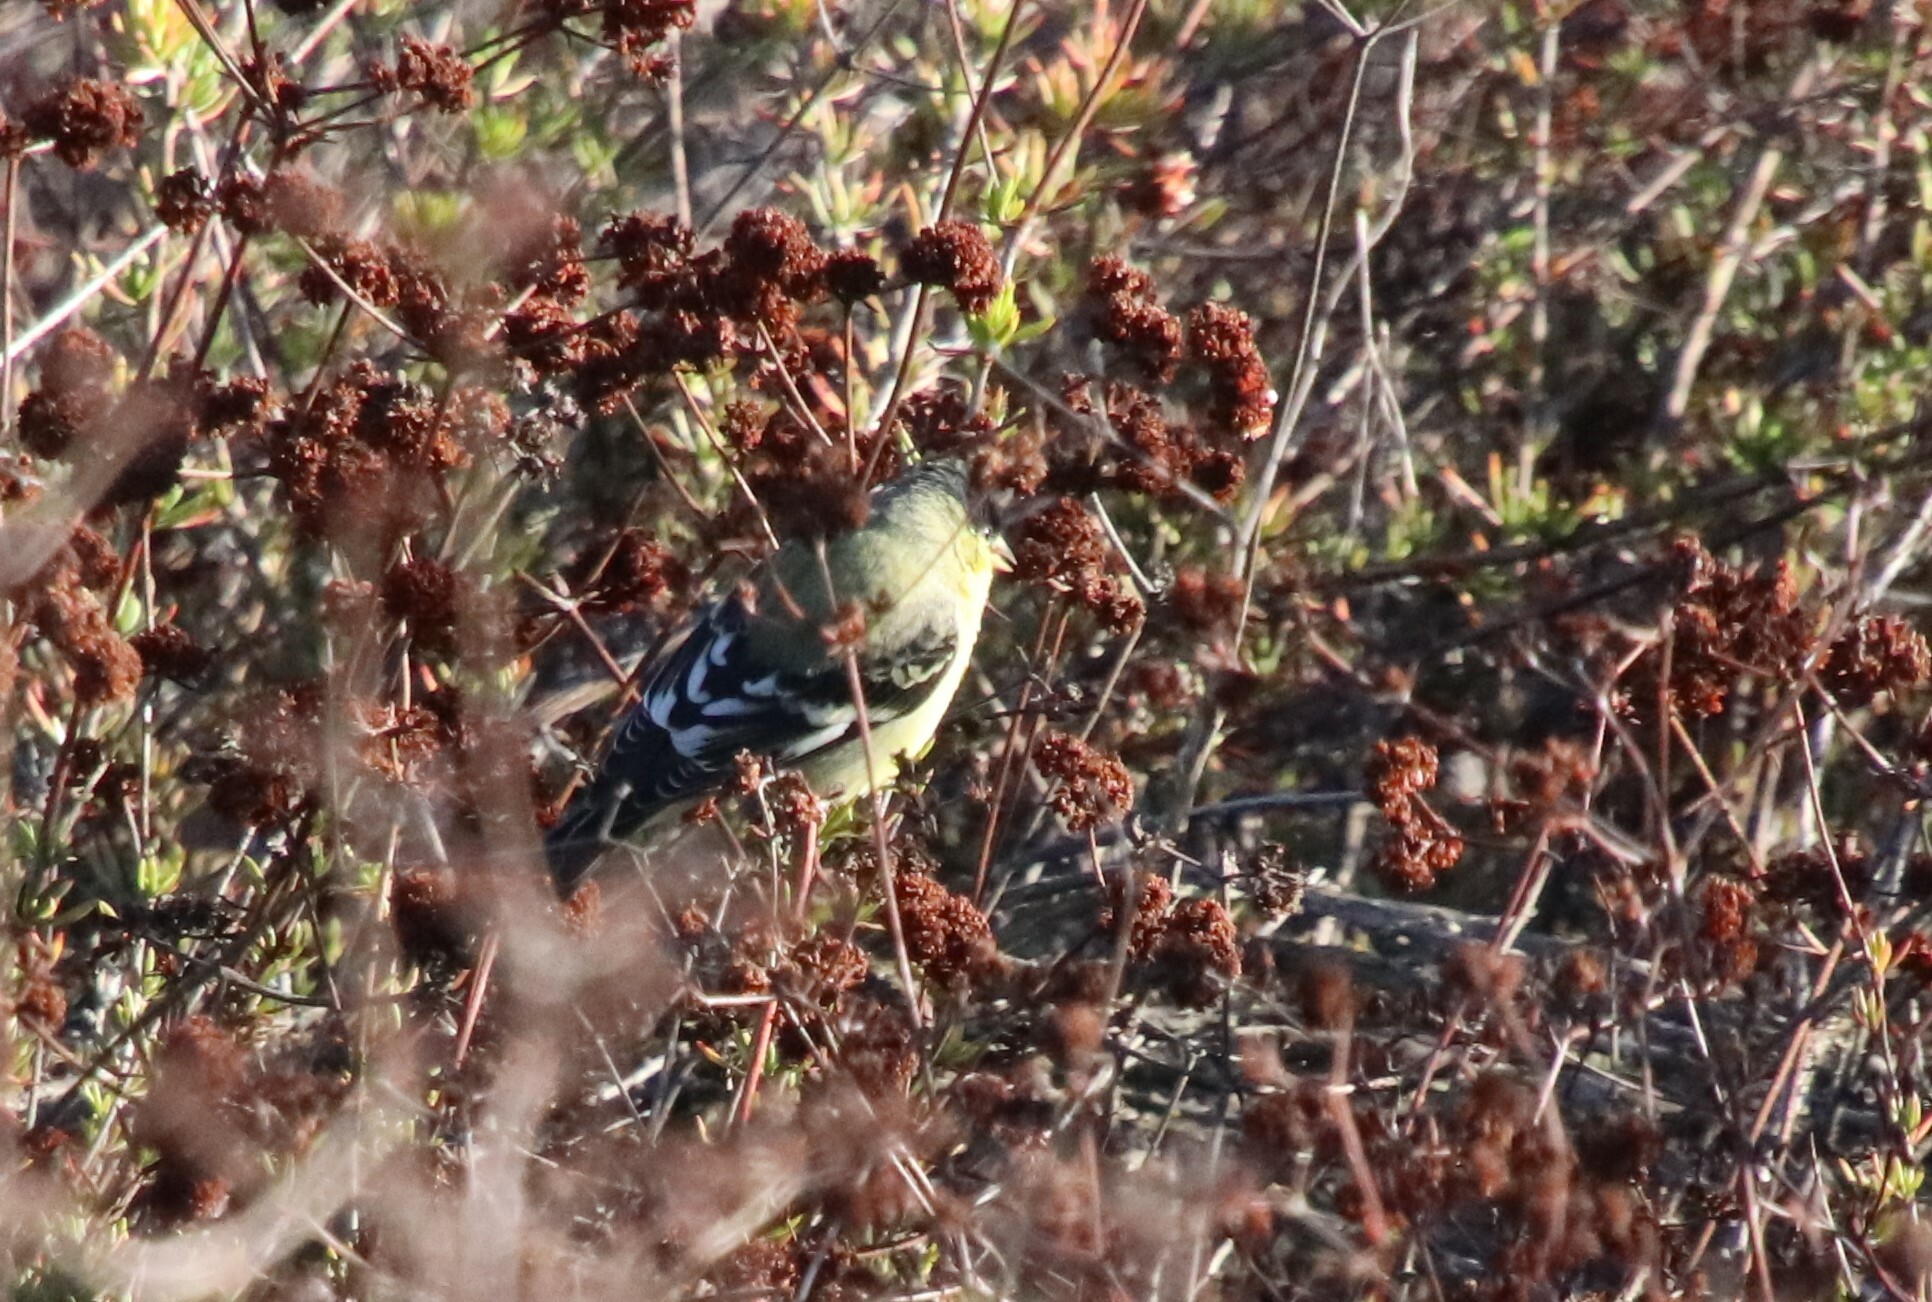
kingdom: Animalia
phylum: Chordata
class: Aves
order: Passeriformes
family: Fringillidae
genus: Spinus
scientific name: Spinus psaltria
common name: Lesser goldfinch
